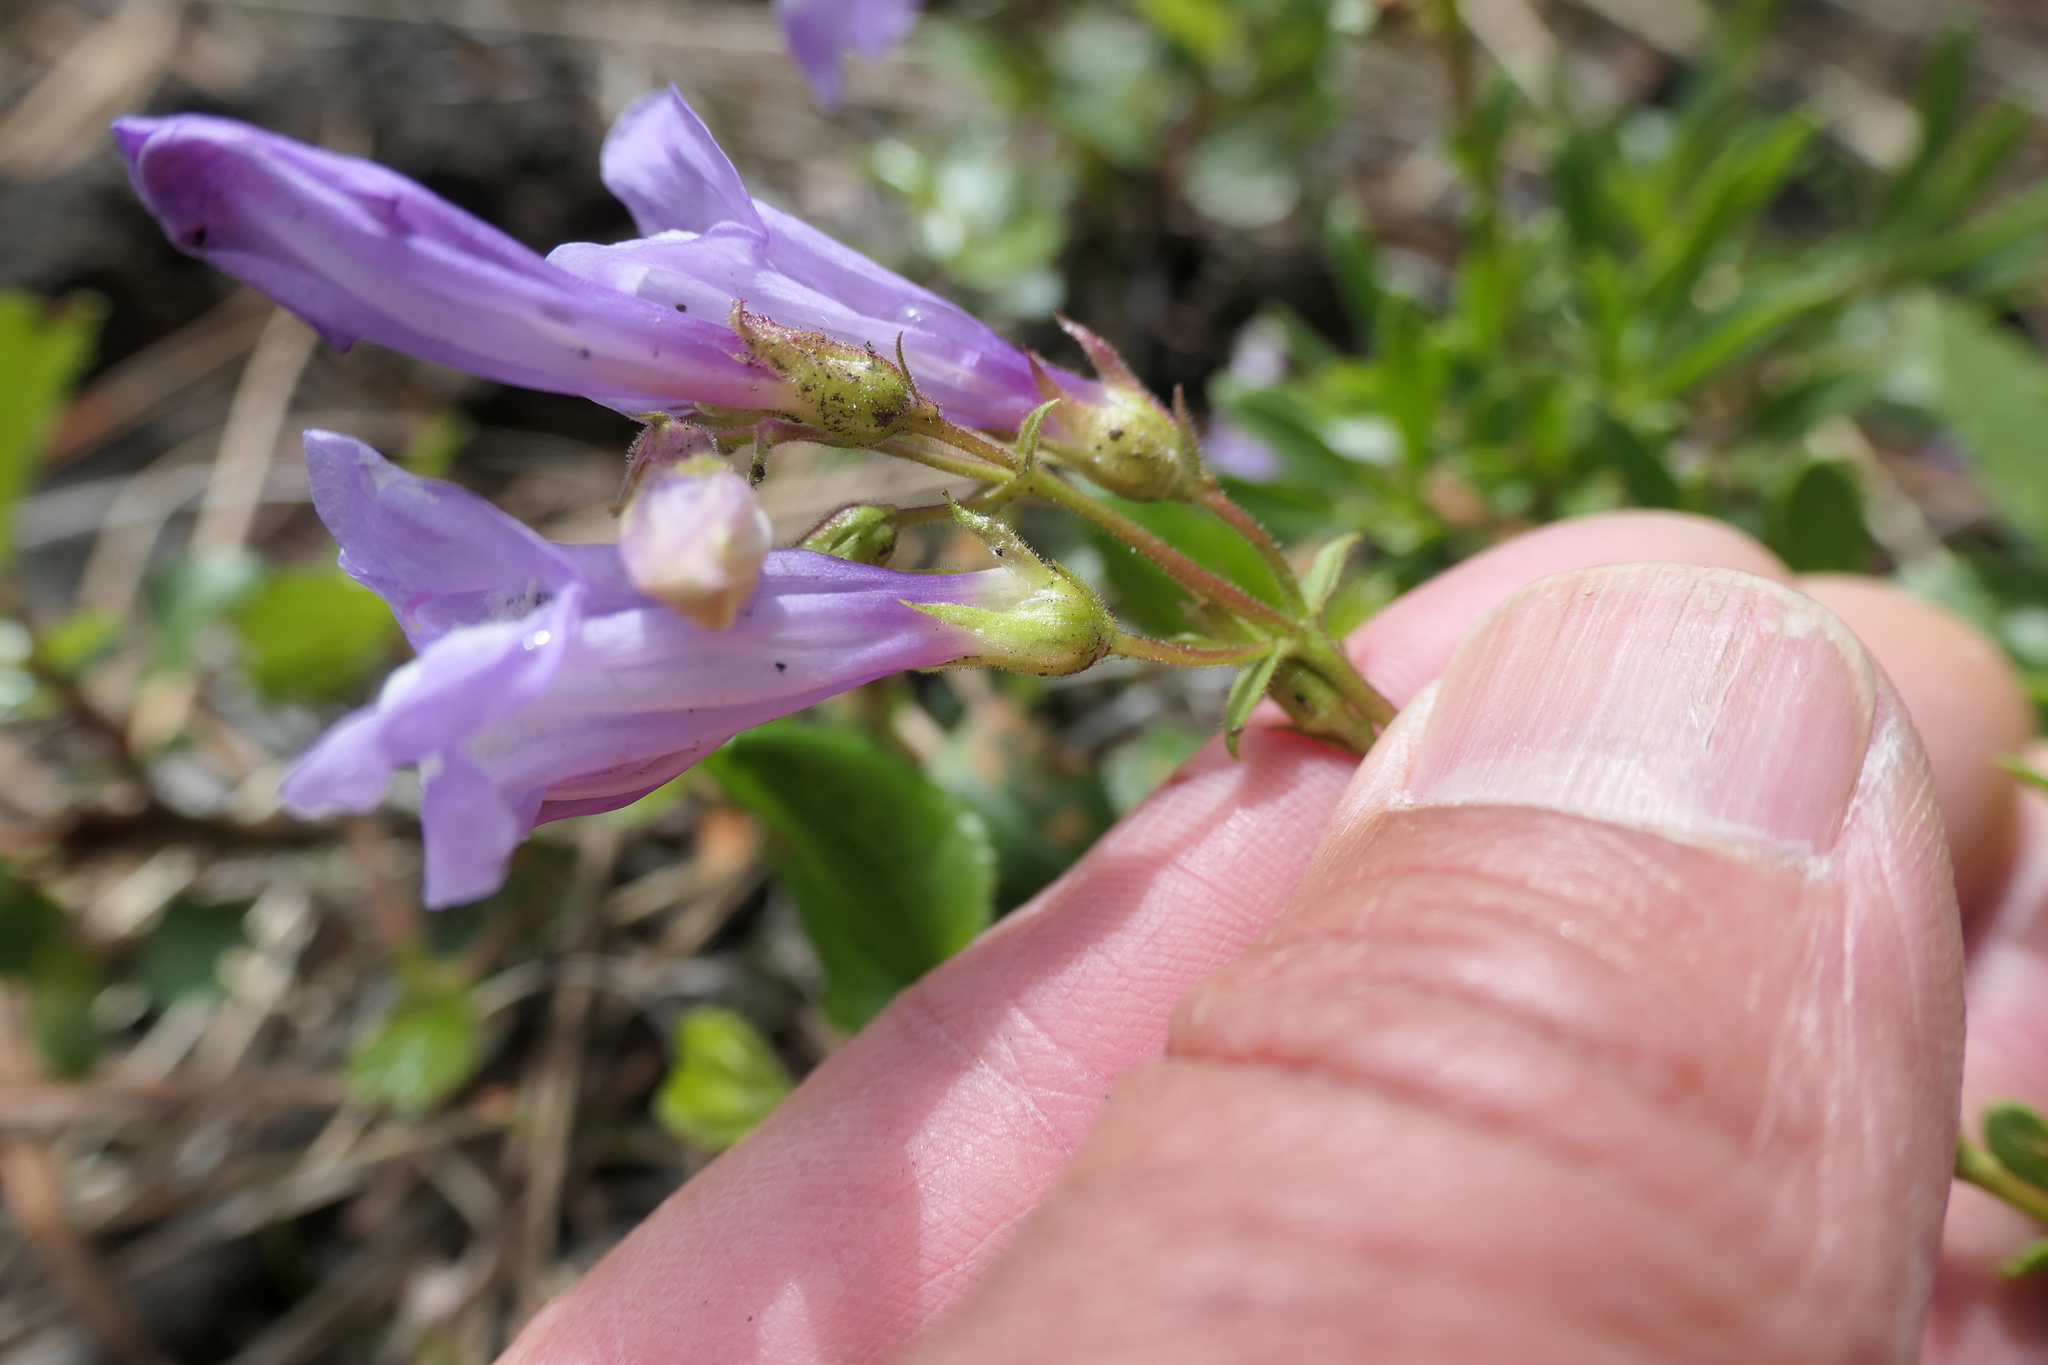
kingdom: Plantae
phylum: Tracheophyta
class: Magnoliopsida
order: Lamiales
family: Plantaginaceae
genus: Penstemon
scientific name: Penstemon fruticosus
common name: Bush penstemon
